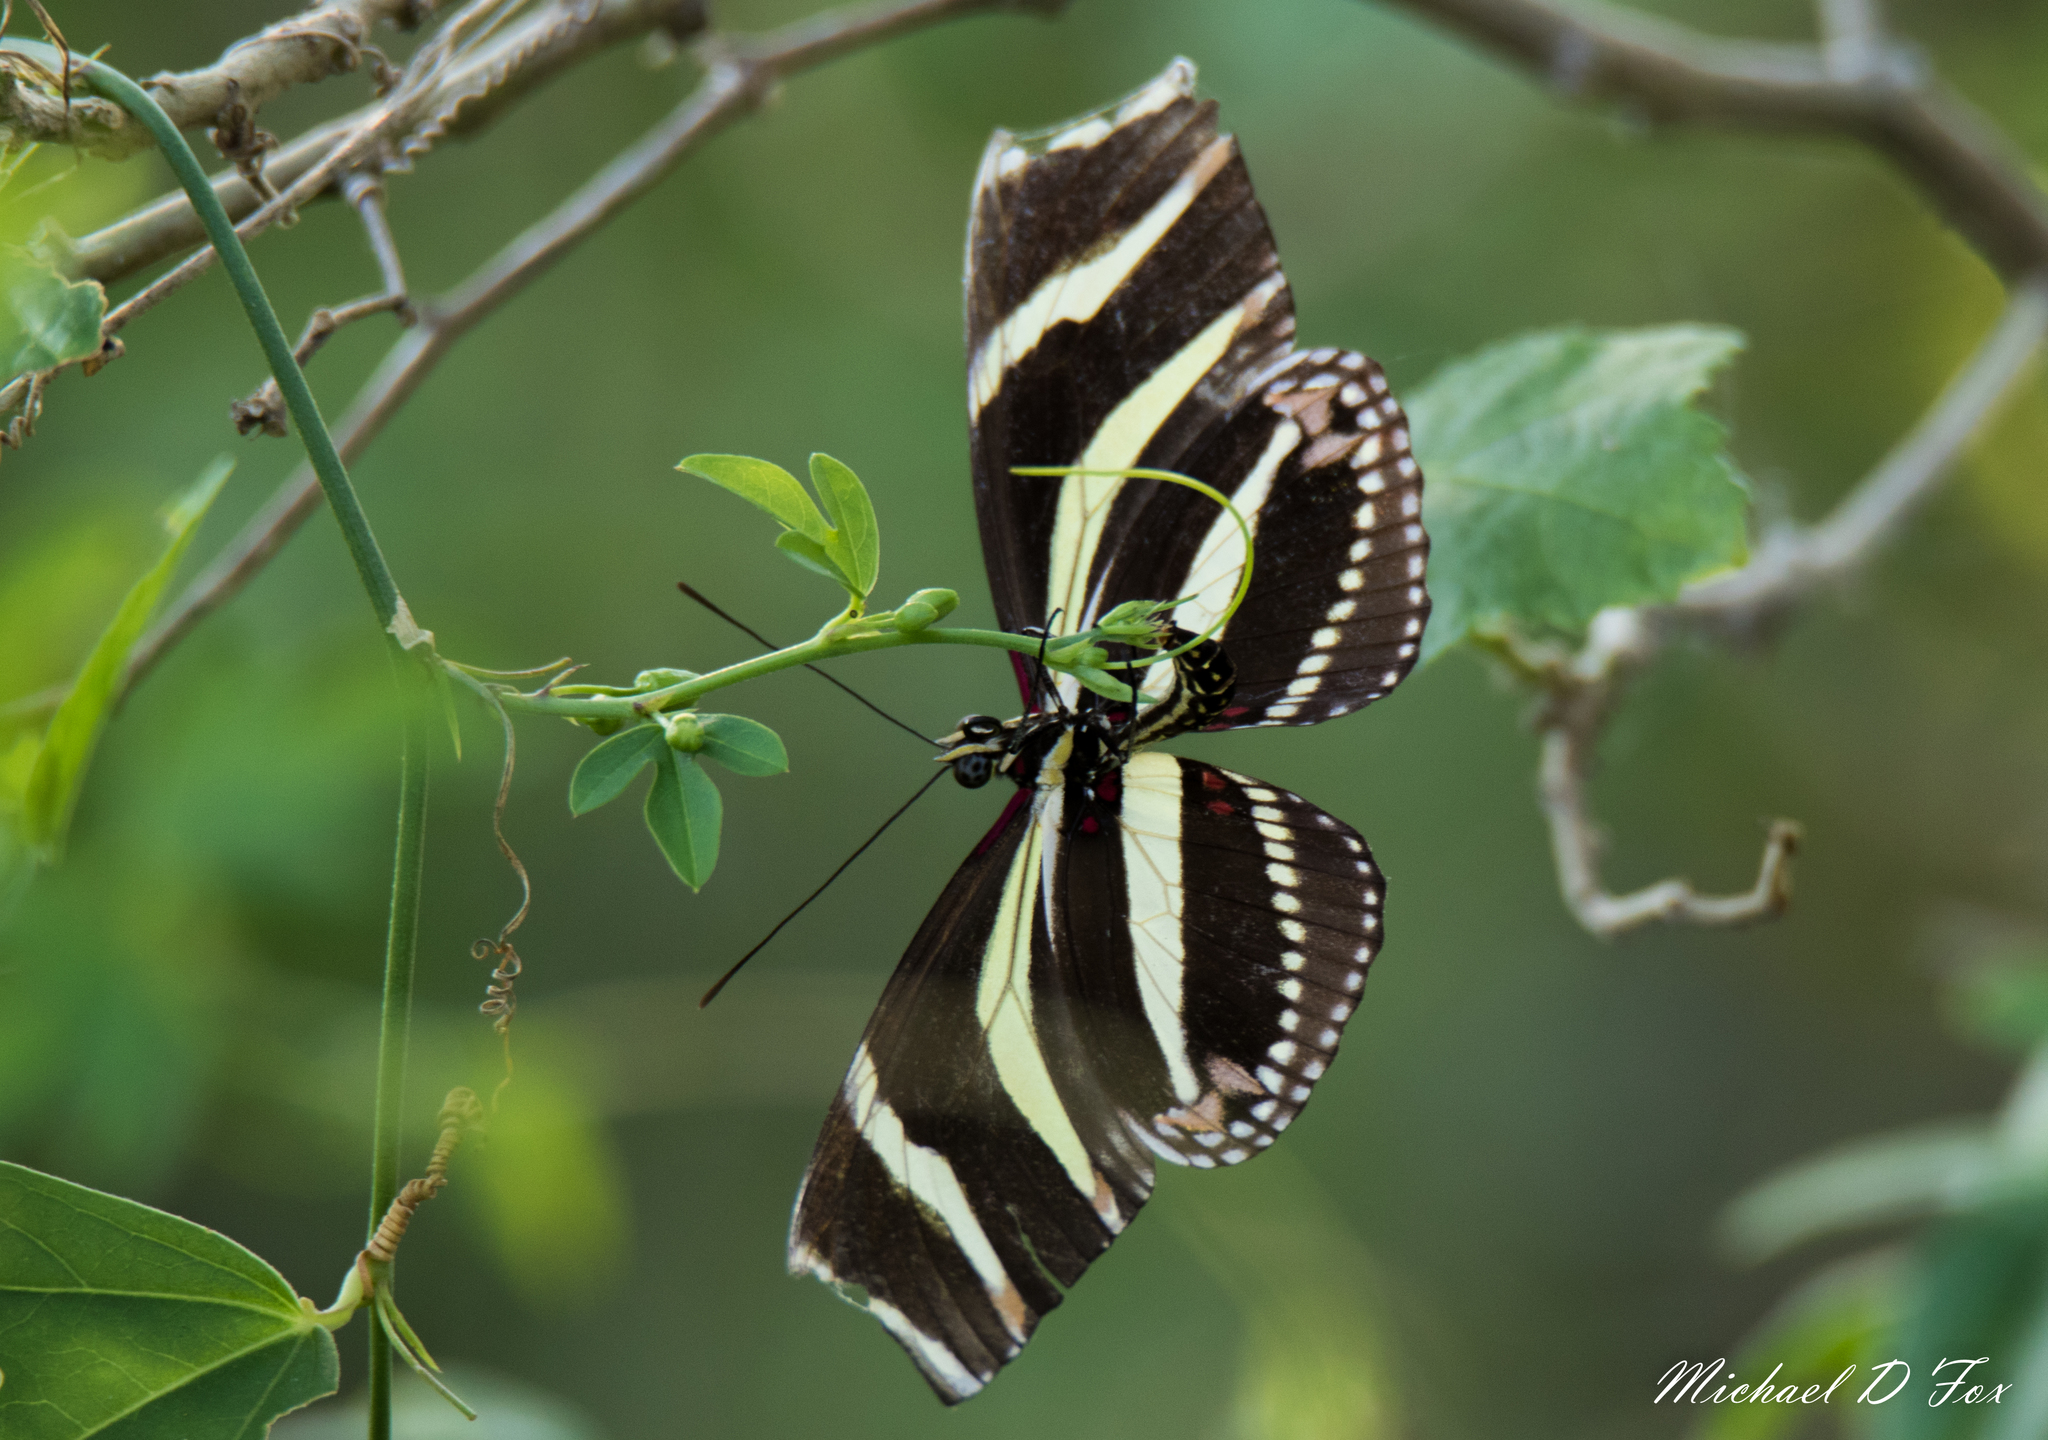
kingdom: Animalia
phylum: Arthropoda
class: Insecta
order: Lepidoptera
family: Nymphalidae
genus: Heliconius
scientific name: Heliconius charithonia
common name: Zebra long wing
